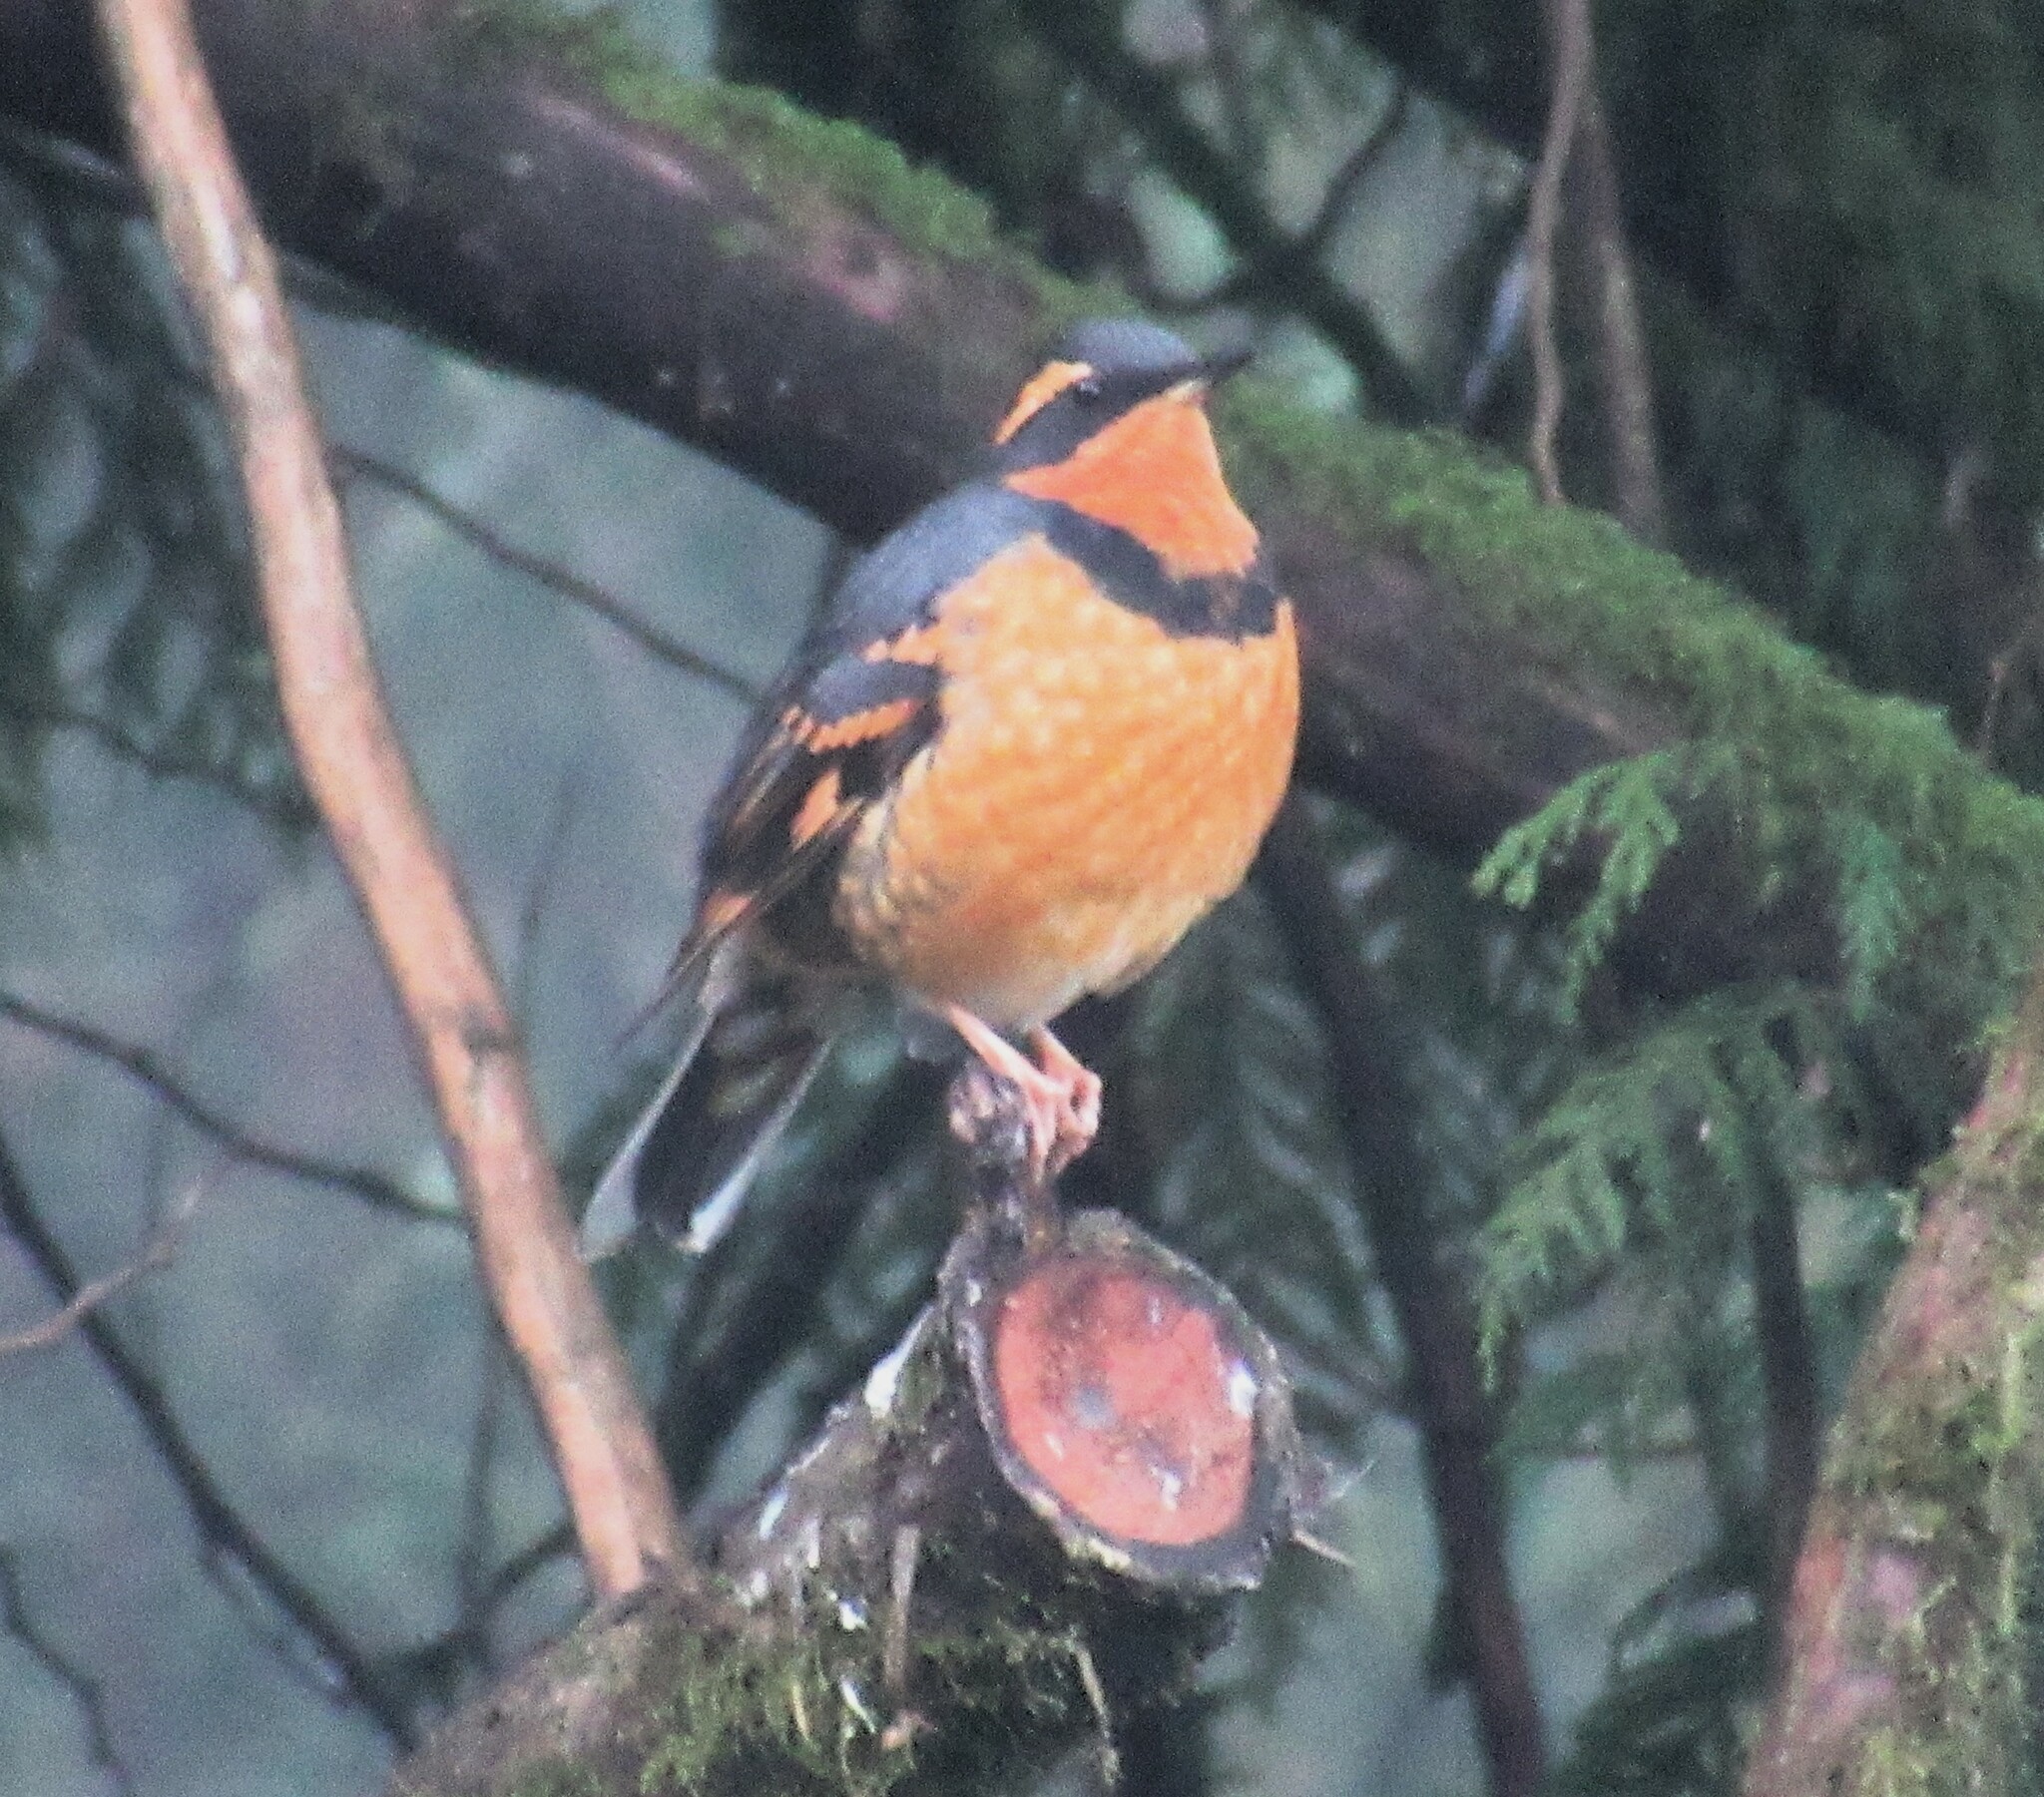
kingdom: Animalia
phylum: Chordata
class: Aves
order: Passeriformes
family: Turdidae
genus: Ixoreus
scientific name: Ixoreus naevius
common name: Varied thrush
